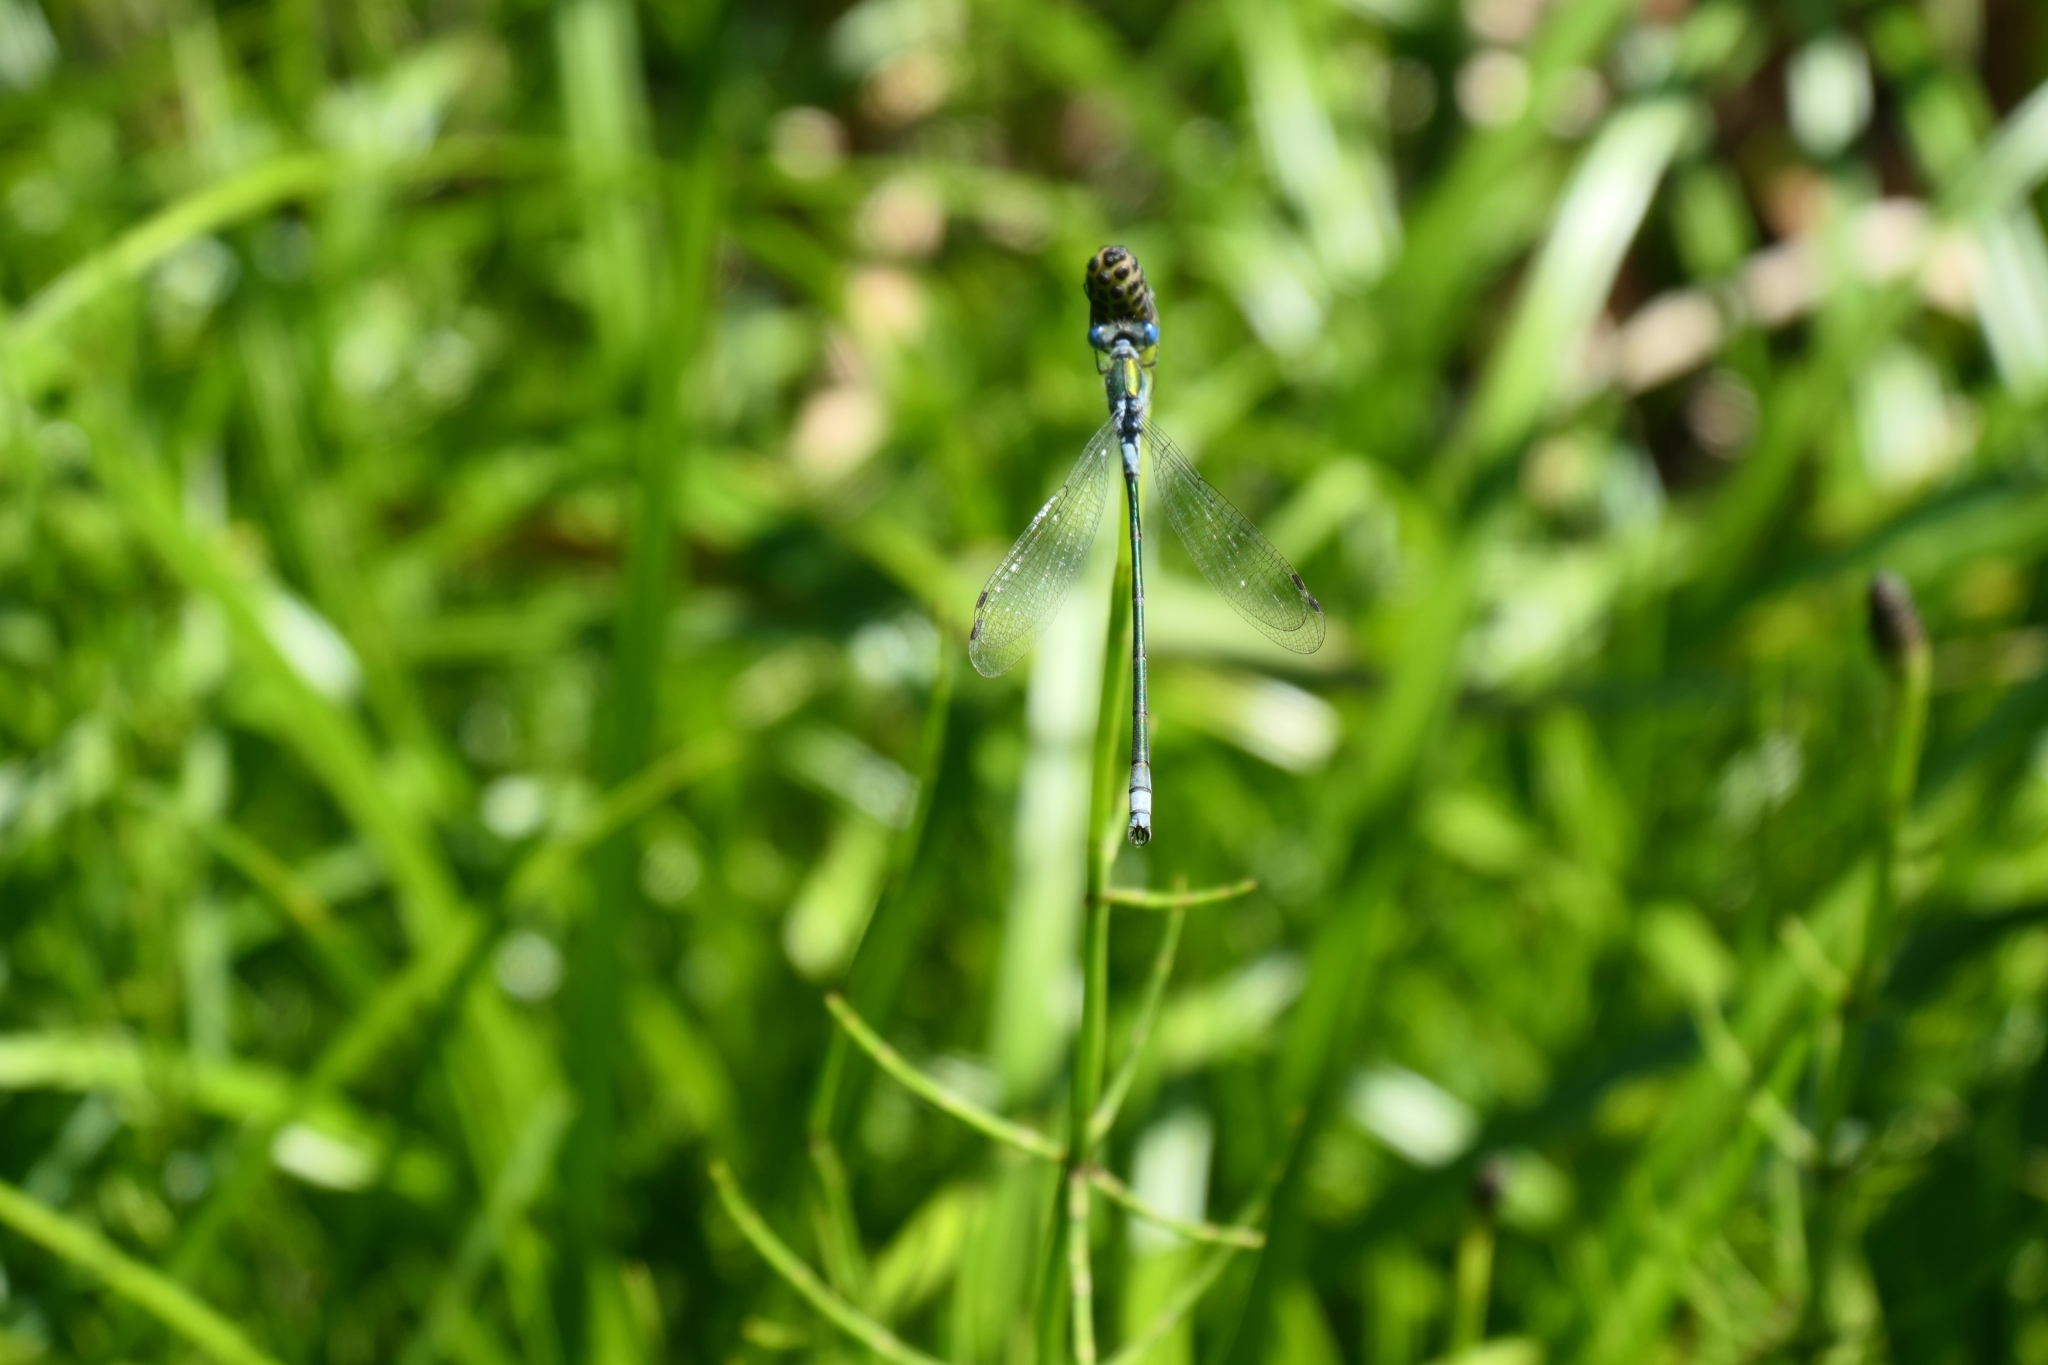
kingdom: Animalia
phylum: Arthropoda
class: Insecta
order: Odonata
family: Lestidae
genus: Lestes
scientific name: Lestes sponsa
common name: Common spreadwing
